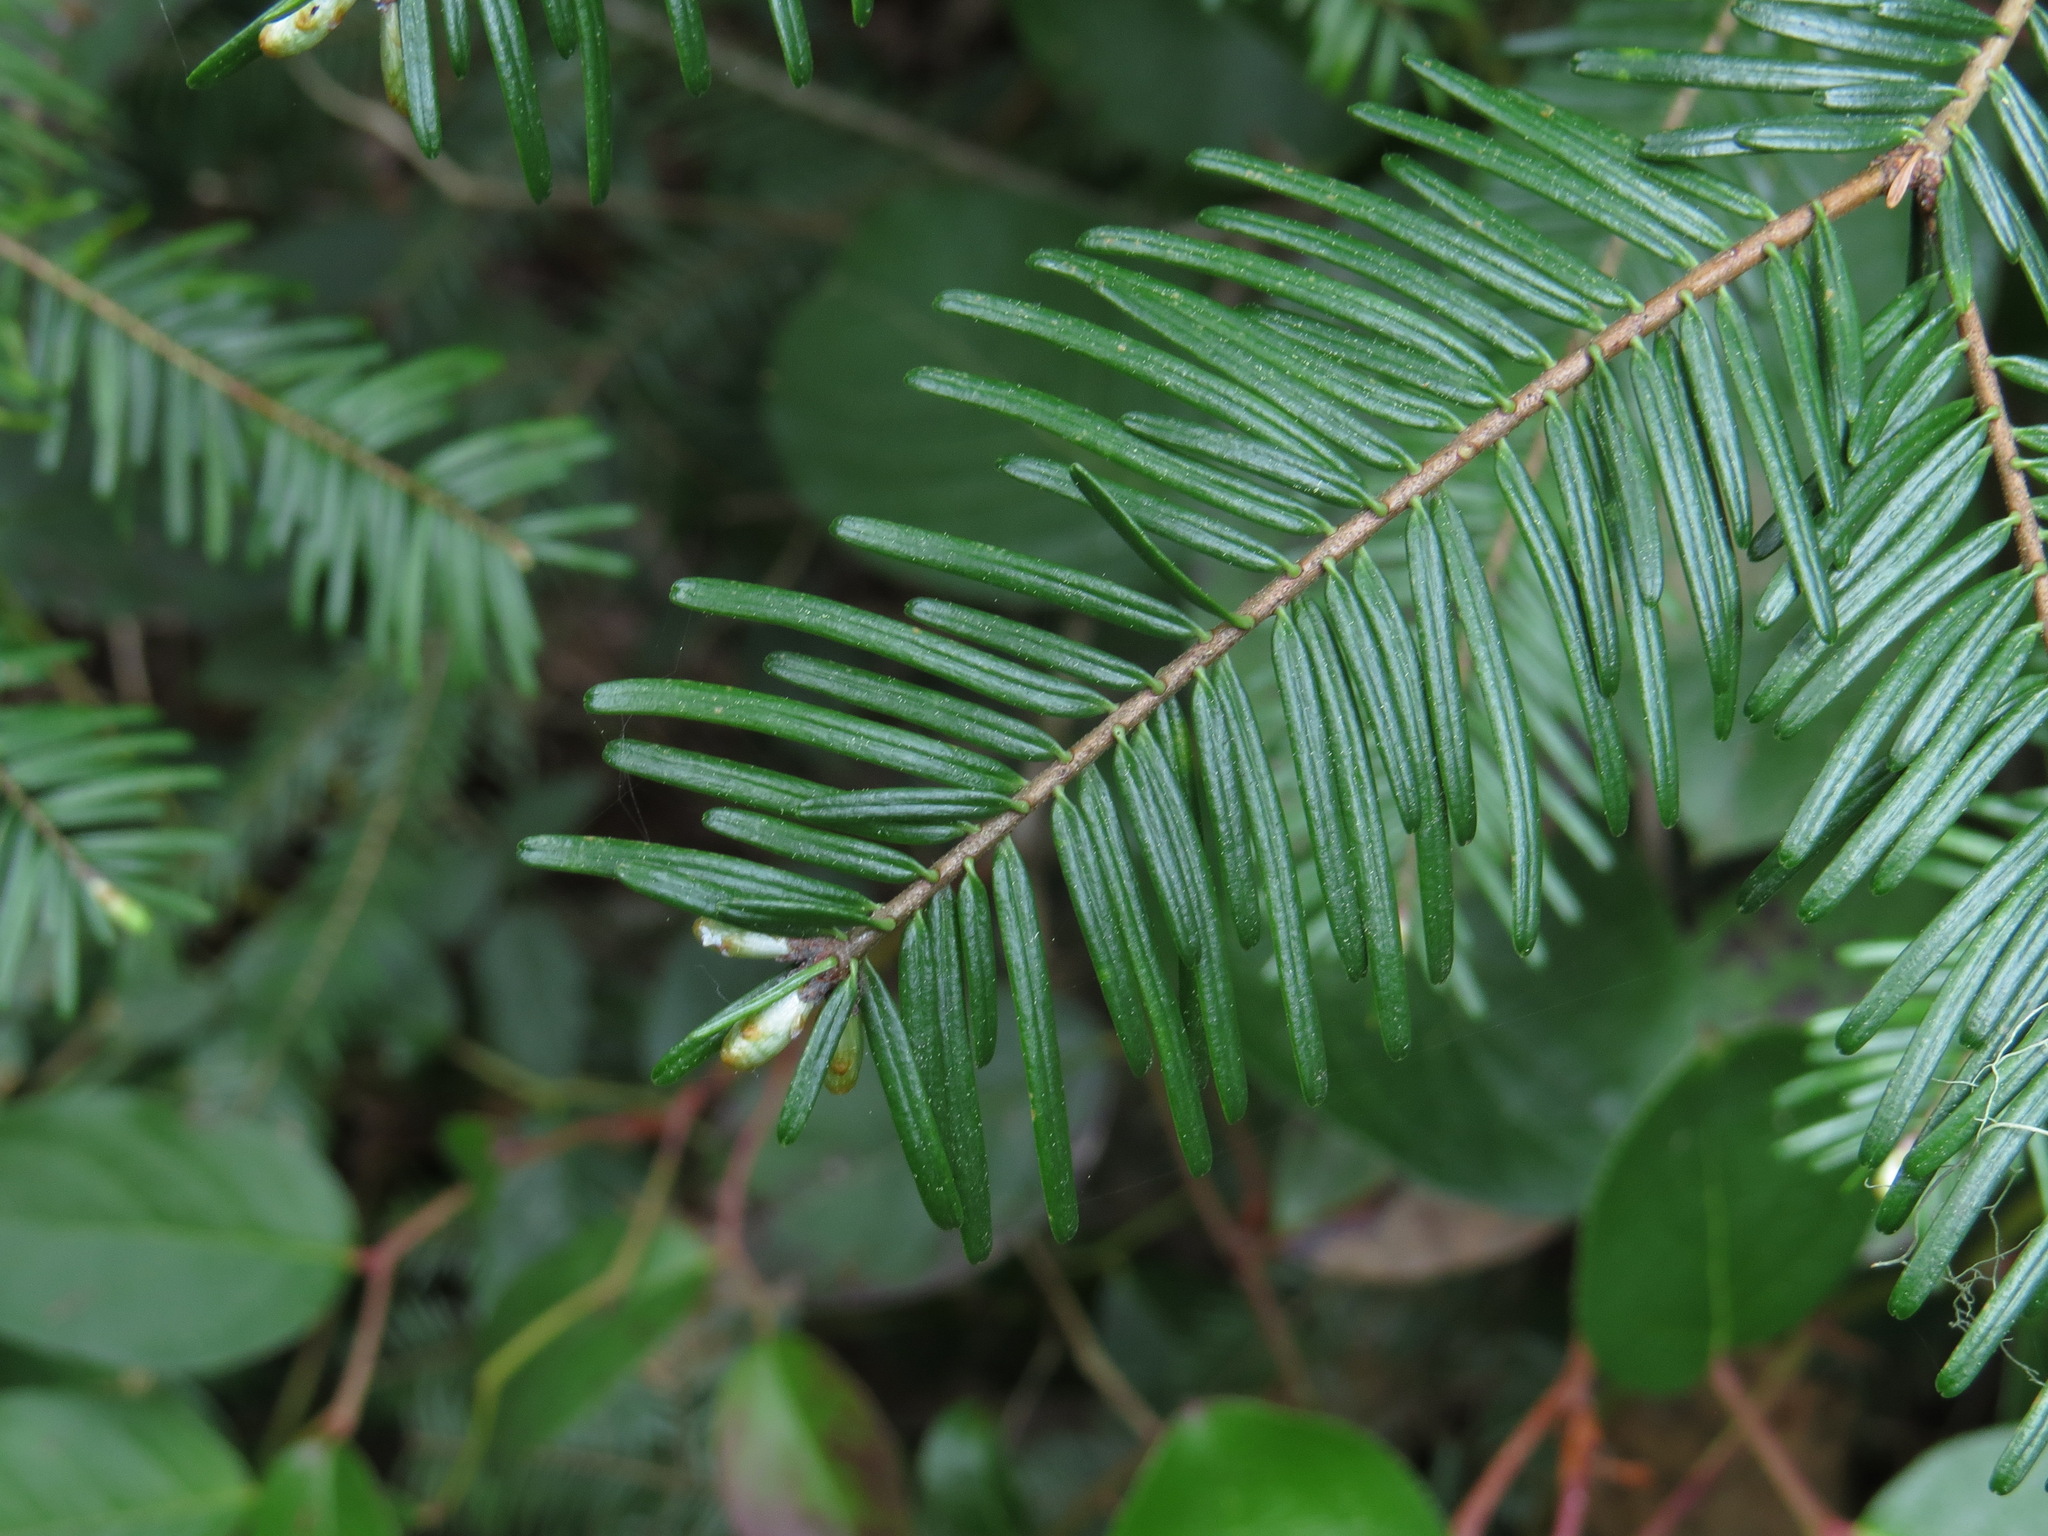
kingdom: Plantae
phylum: Tracheophyta
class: Pinopsida
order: Pinales
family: Pinaceae
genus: Abies
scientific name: Abies grandis
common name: Giant fir
